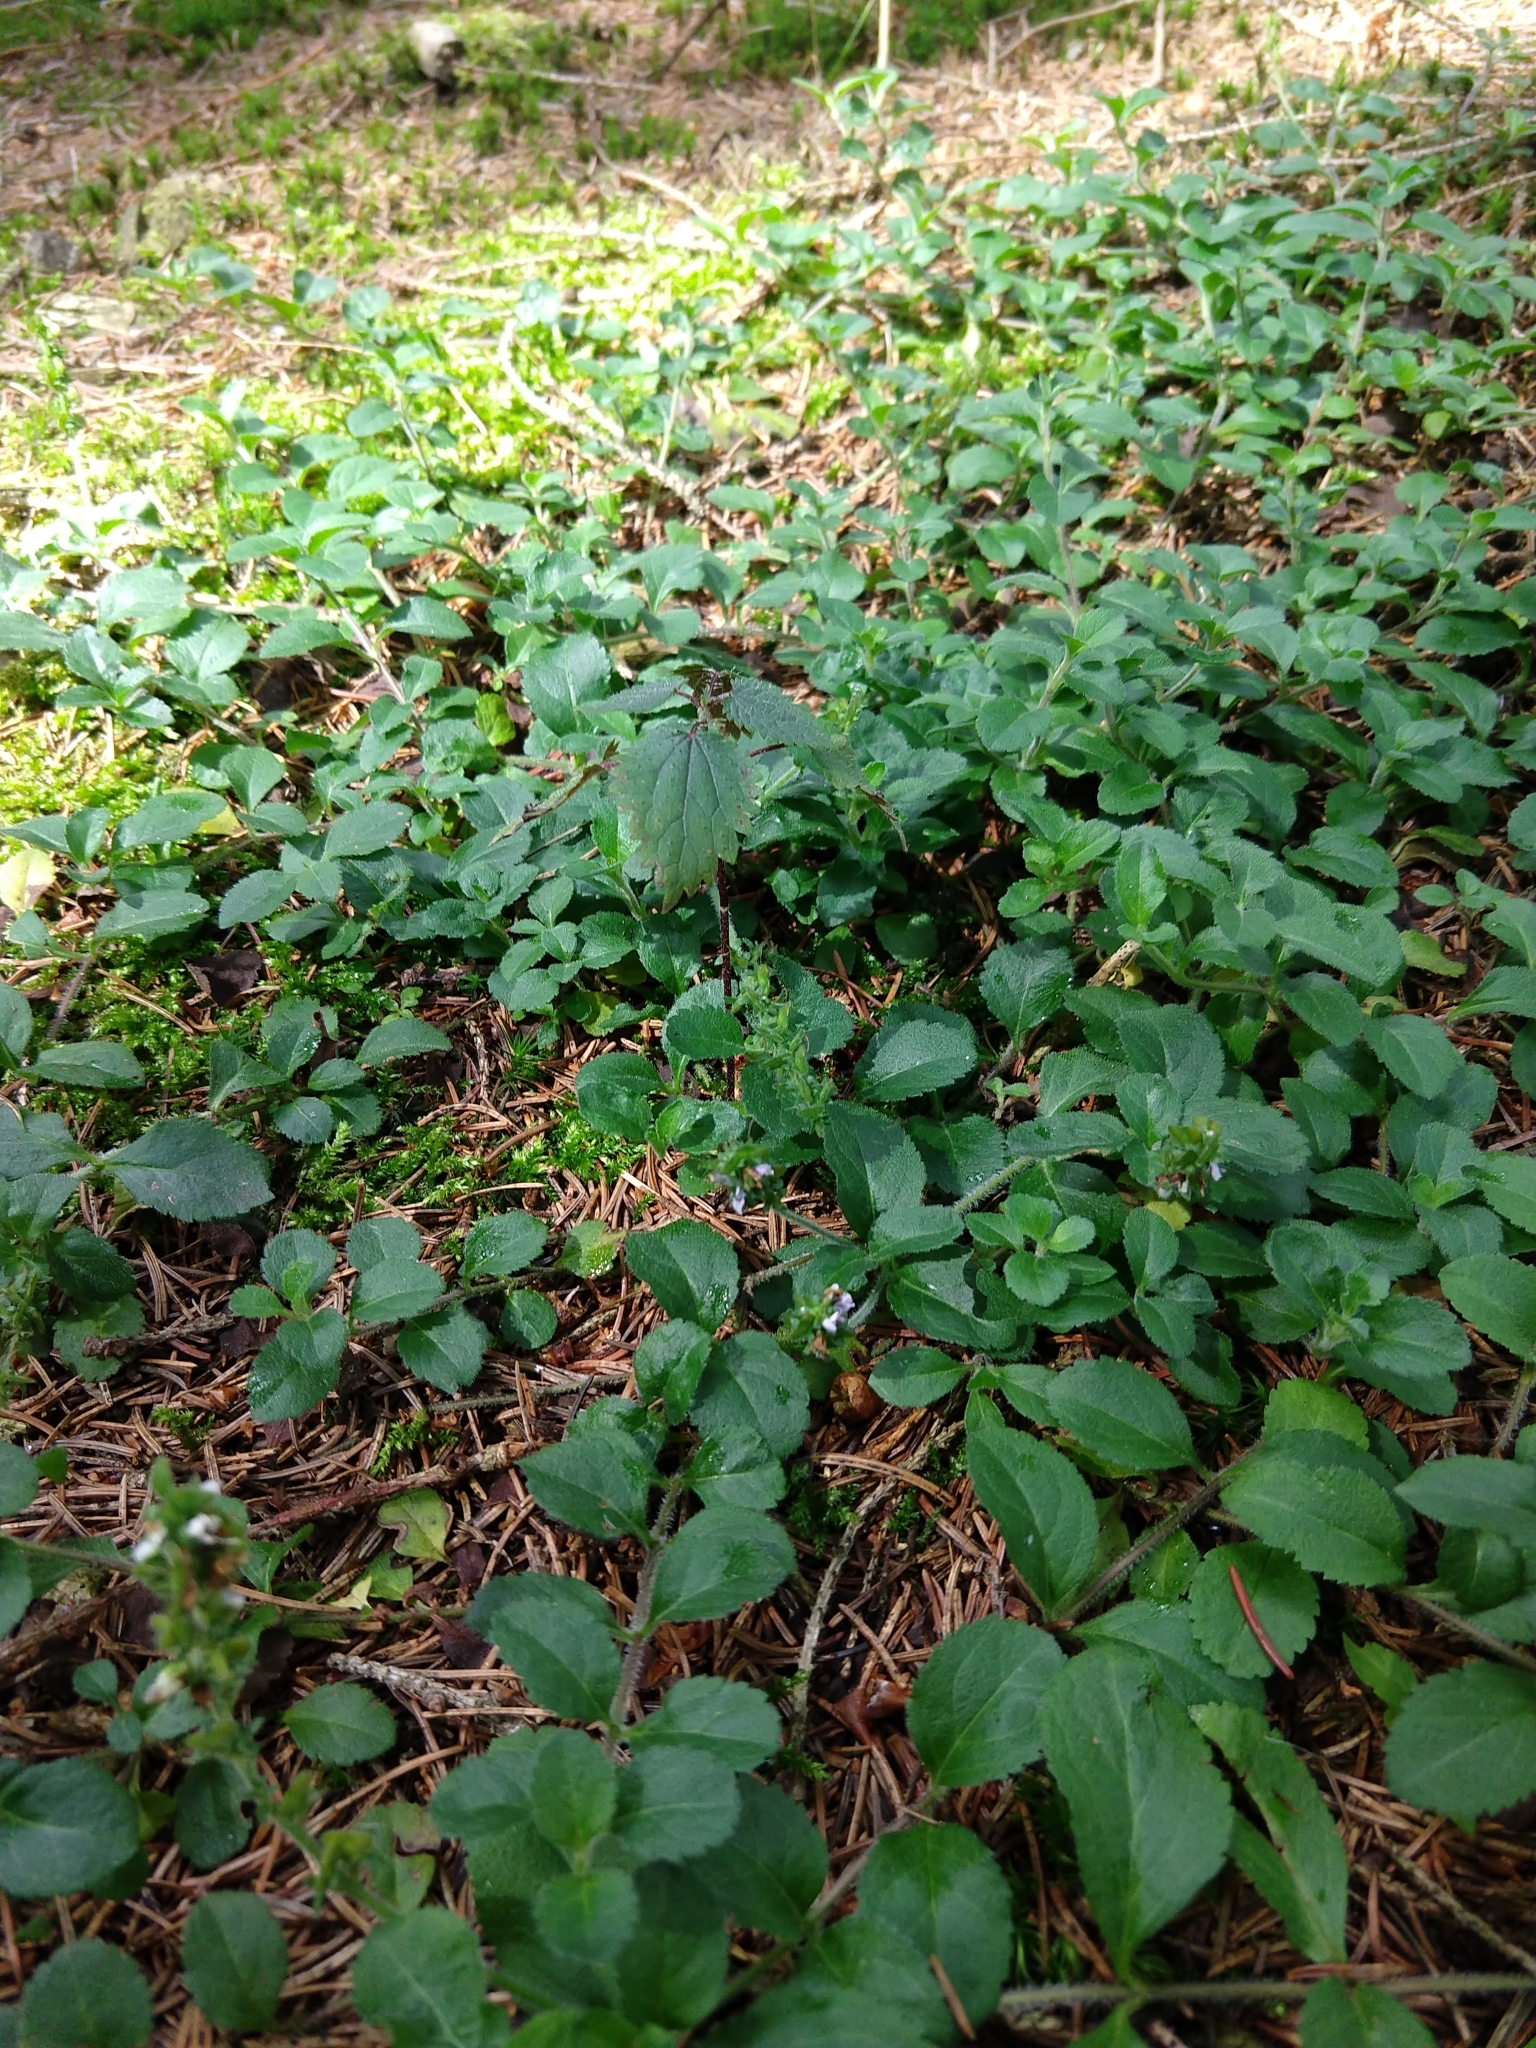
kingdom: Plantae
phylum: Tracheophyta
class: Magnoliopsida
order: Lamiales
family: Plantaginaceae
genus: Veronica
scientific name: Veronica officinalis
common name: Common speedwell
